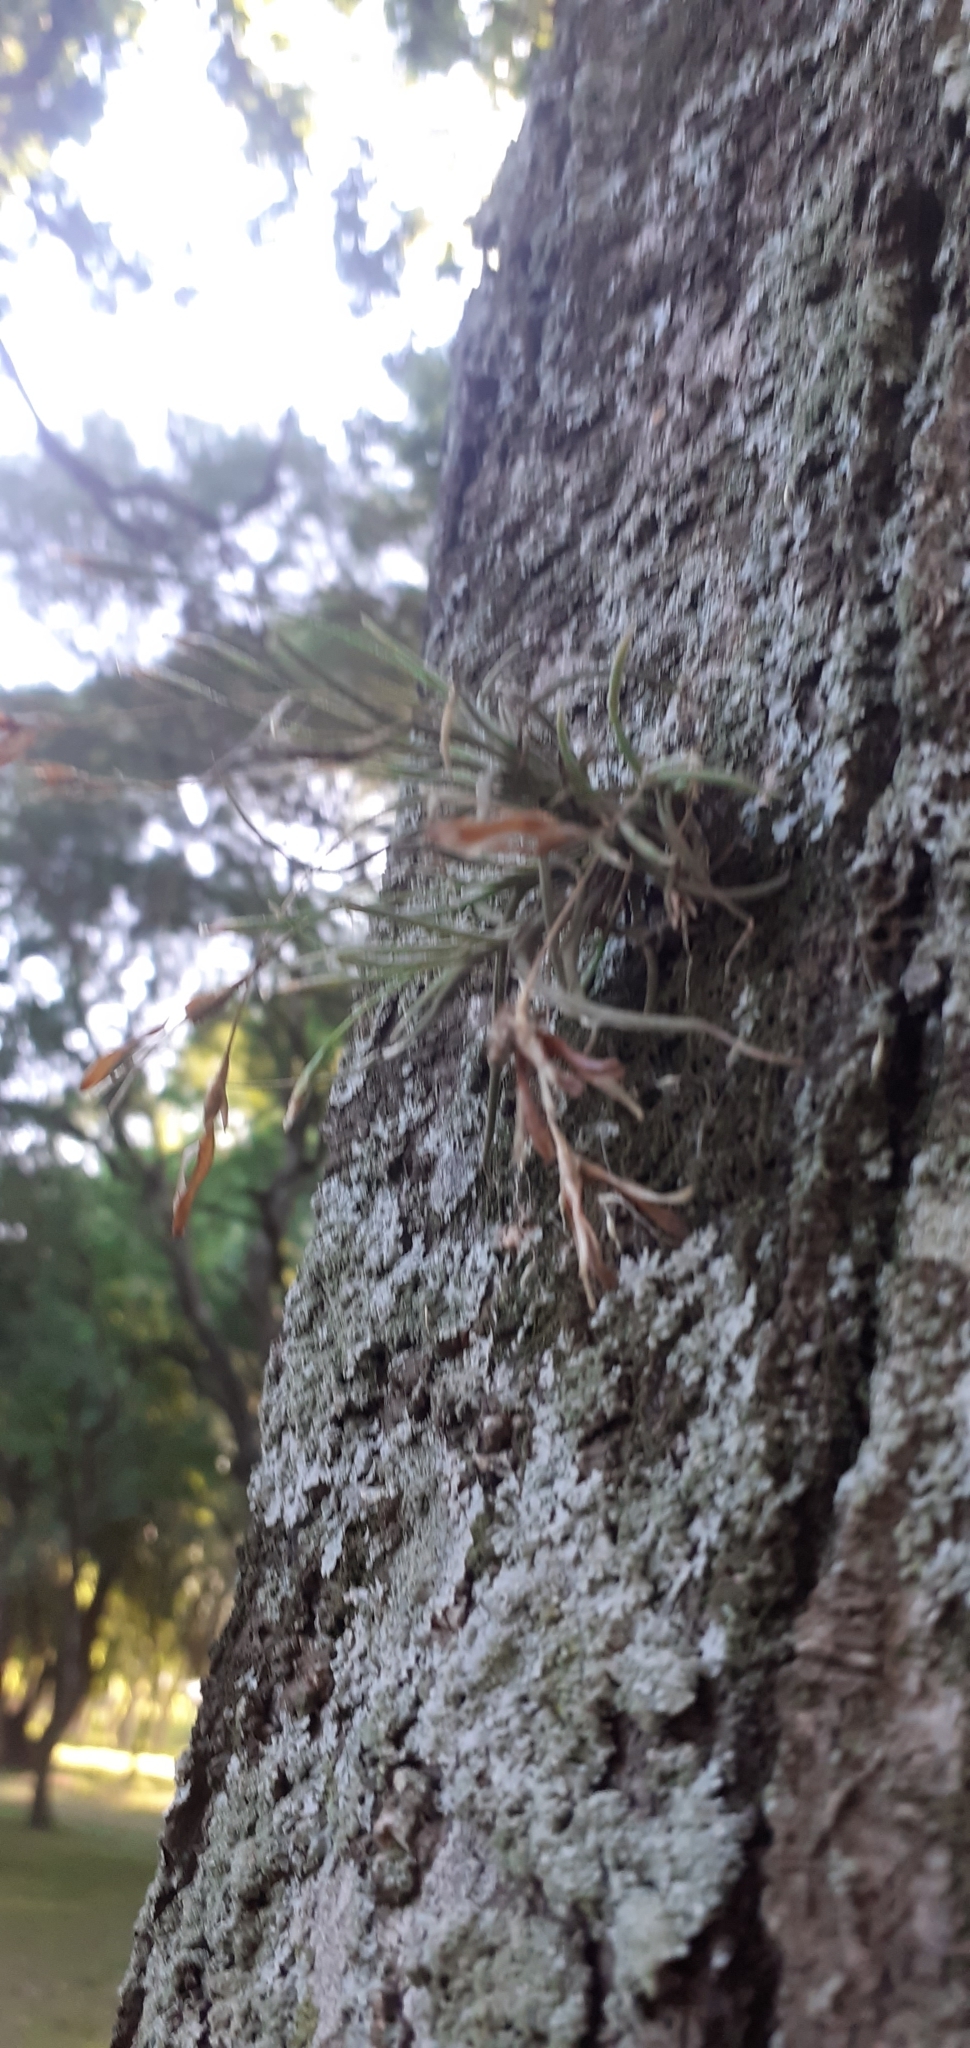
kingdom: Plantae
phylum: Tracheophyta
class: Liliopsida
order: Poales
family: Bromeliaceae
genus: Tillandsia
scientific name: Tillandsia recurvata
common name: Small ballmoss
